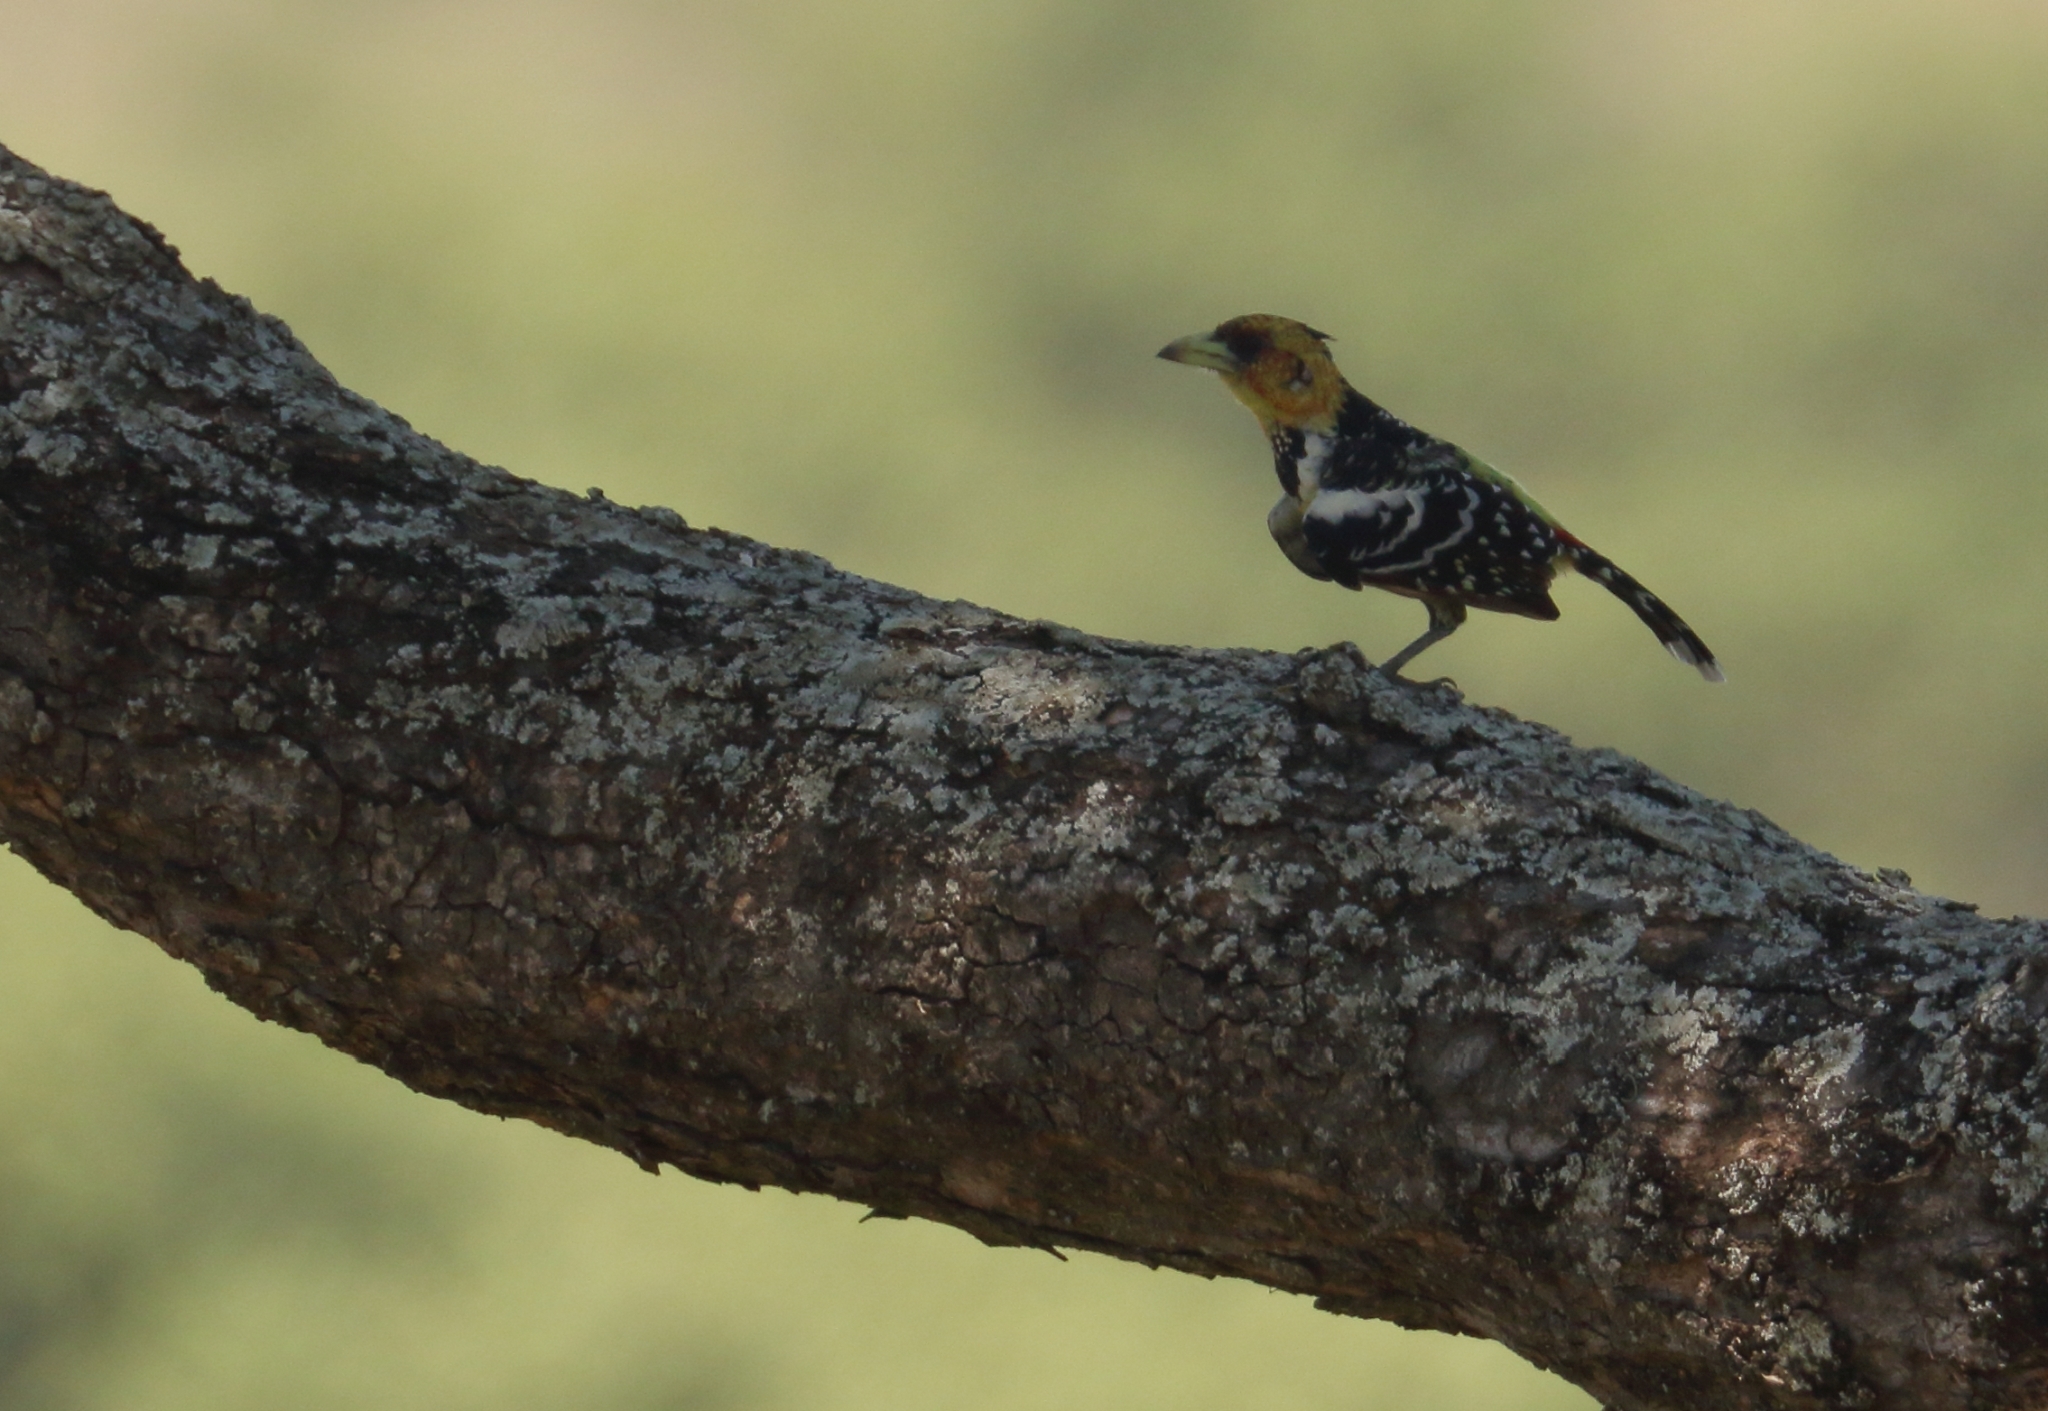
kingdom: Animalia
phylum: Chordata
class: Aves
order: Piciformes
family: Lybiidae
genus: Trachyphonus
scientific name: Trachyphonus vaillantii
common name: Crested barbet
